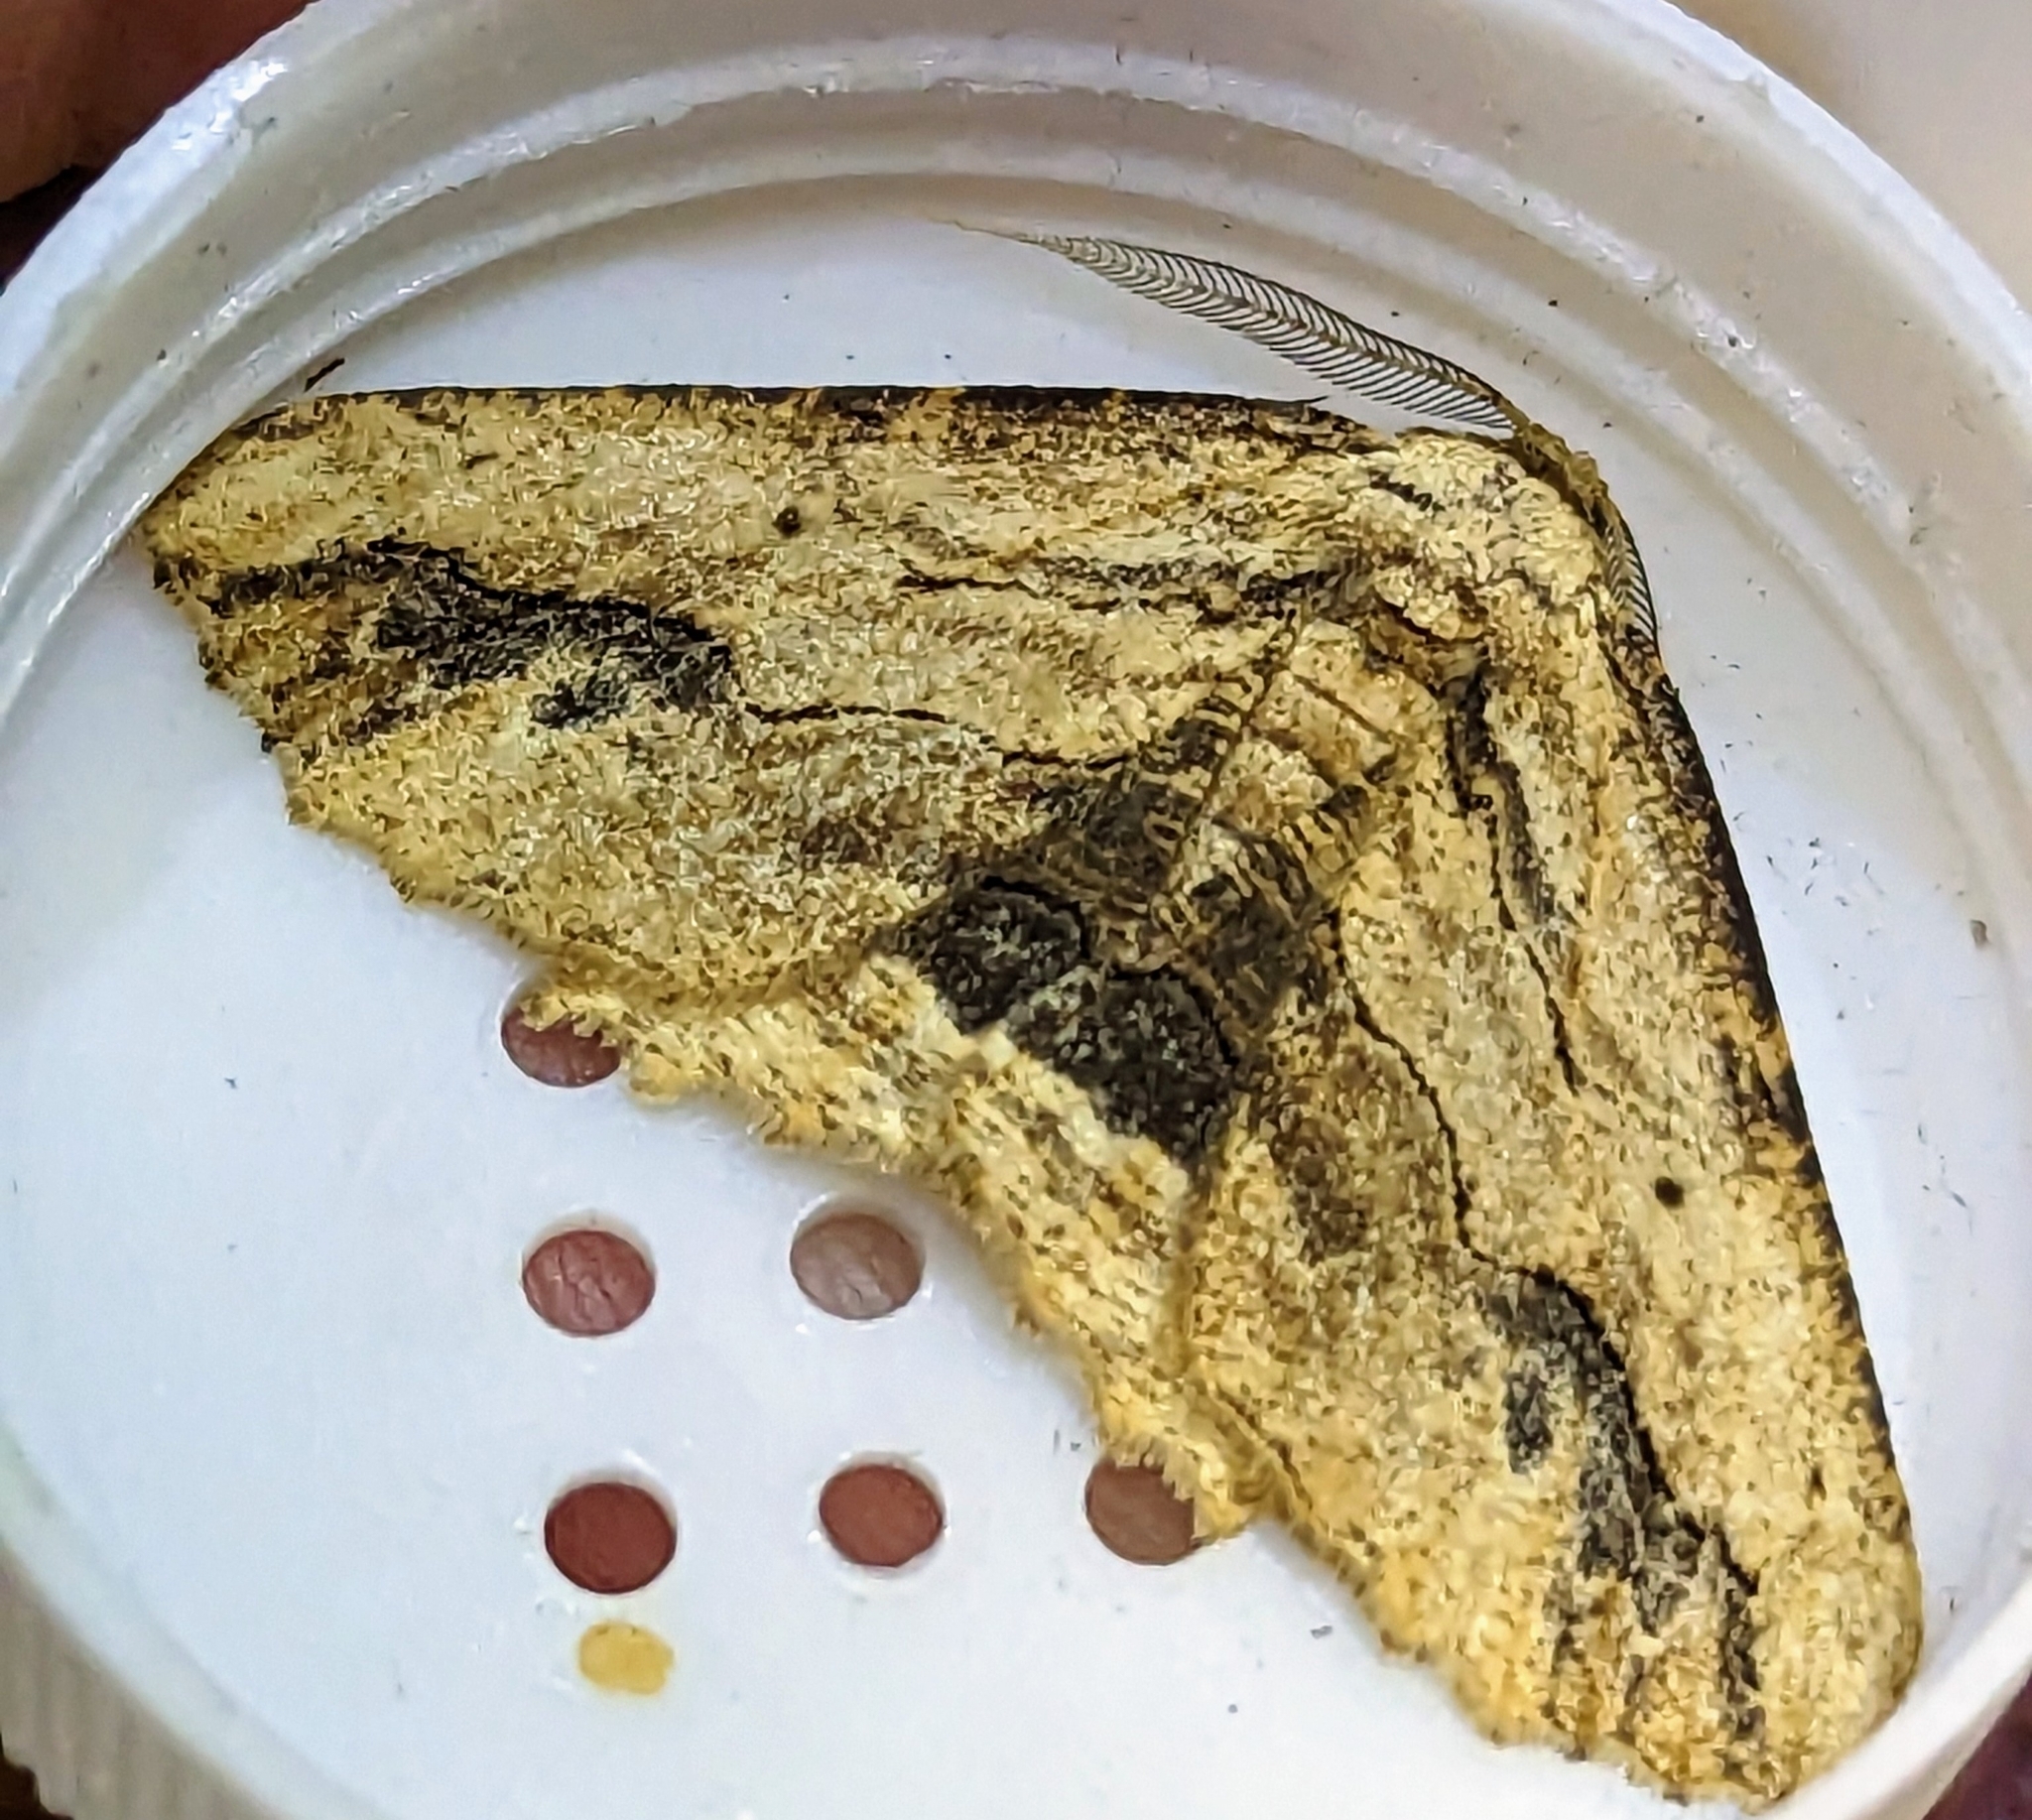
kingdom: Animalia
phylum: Arthropoda
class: Insecta
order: Lepidoptera
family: Geometridae
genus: Menophra
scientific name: Menophra abruptaria
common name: Waved umber
